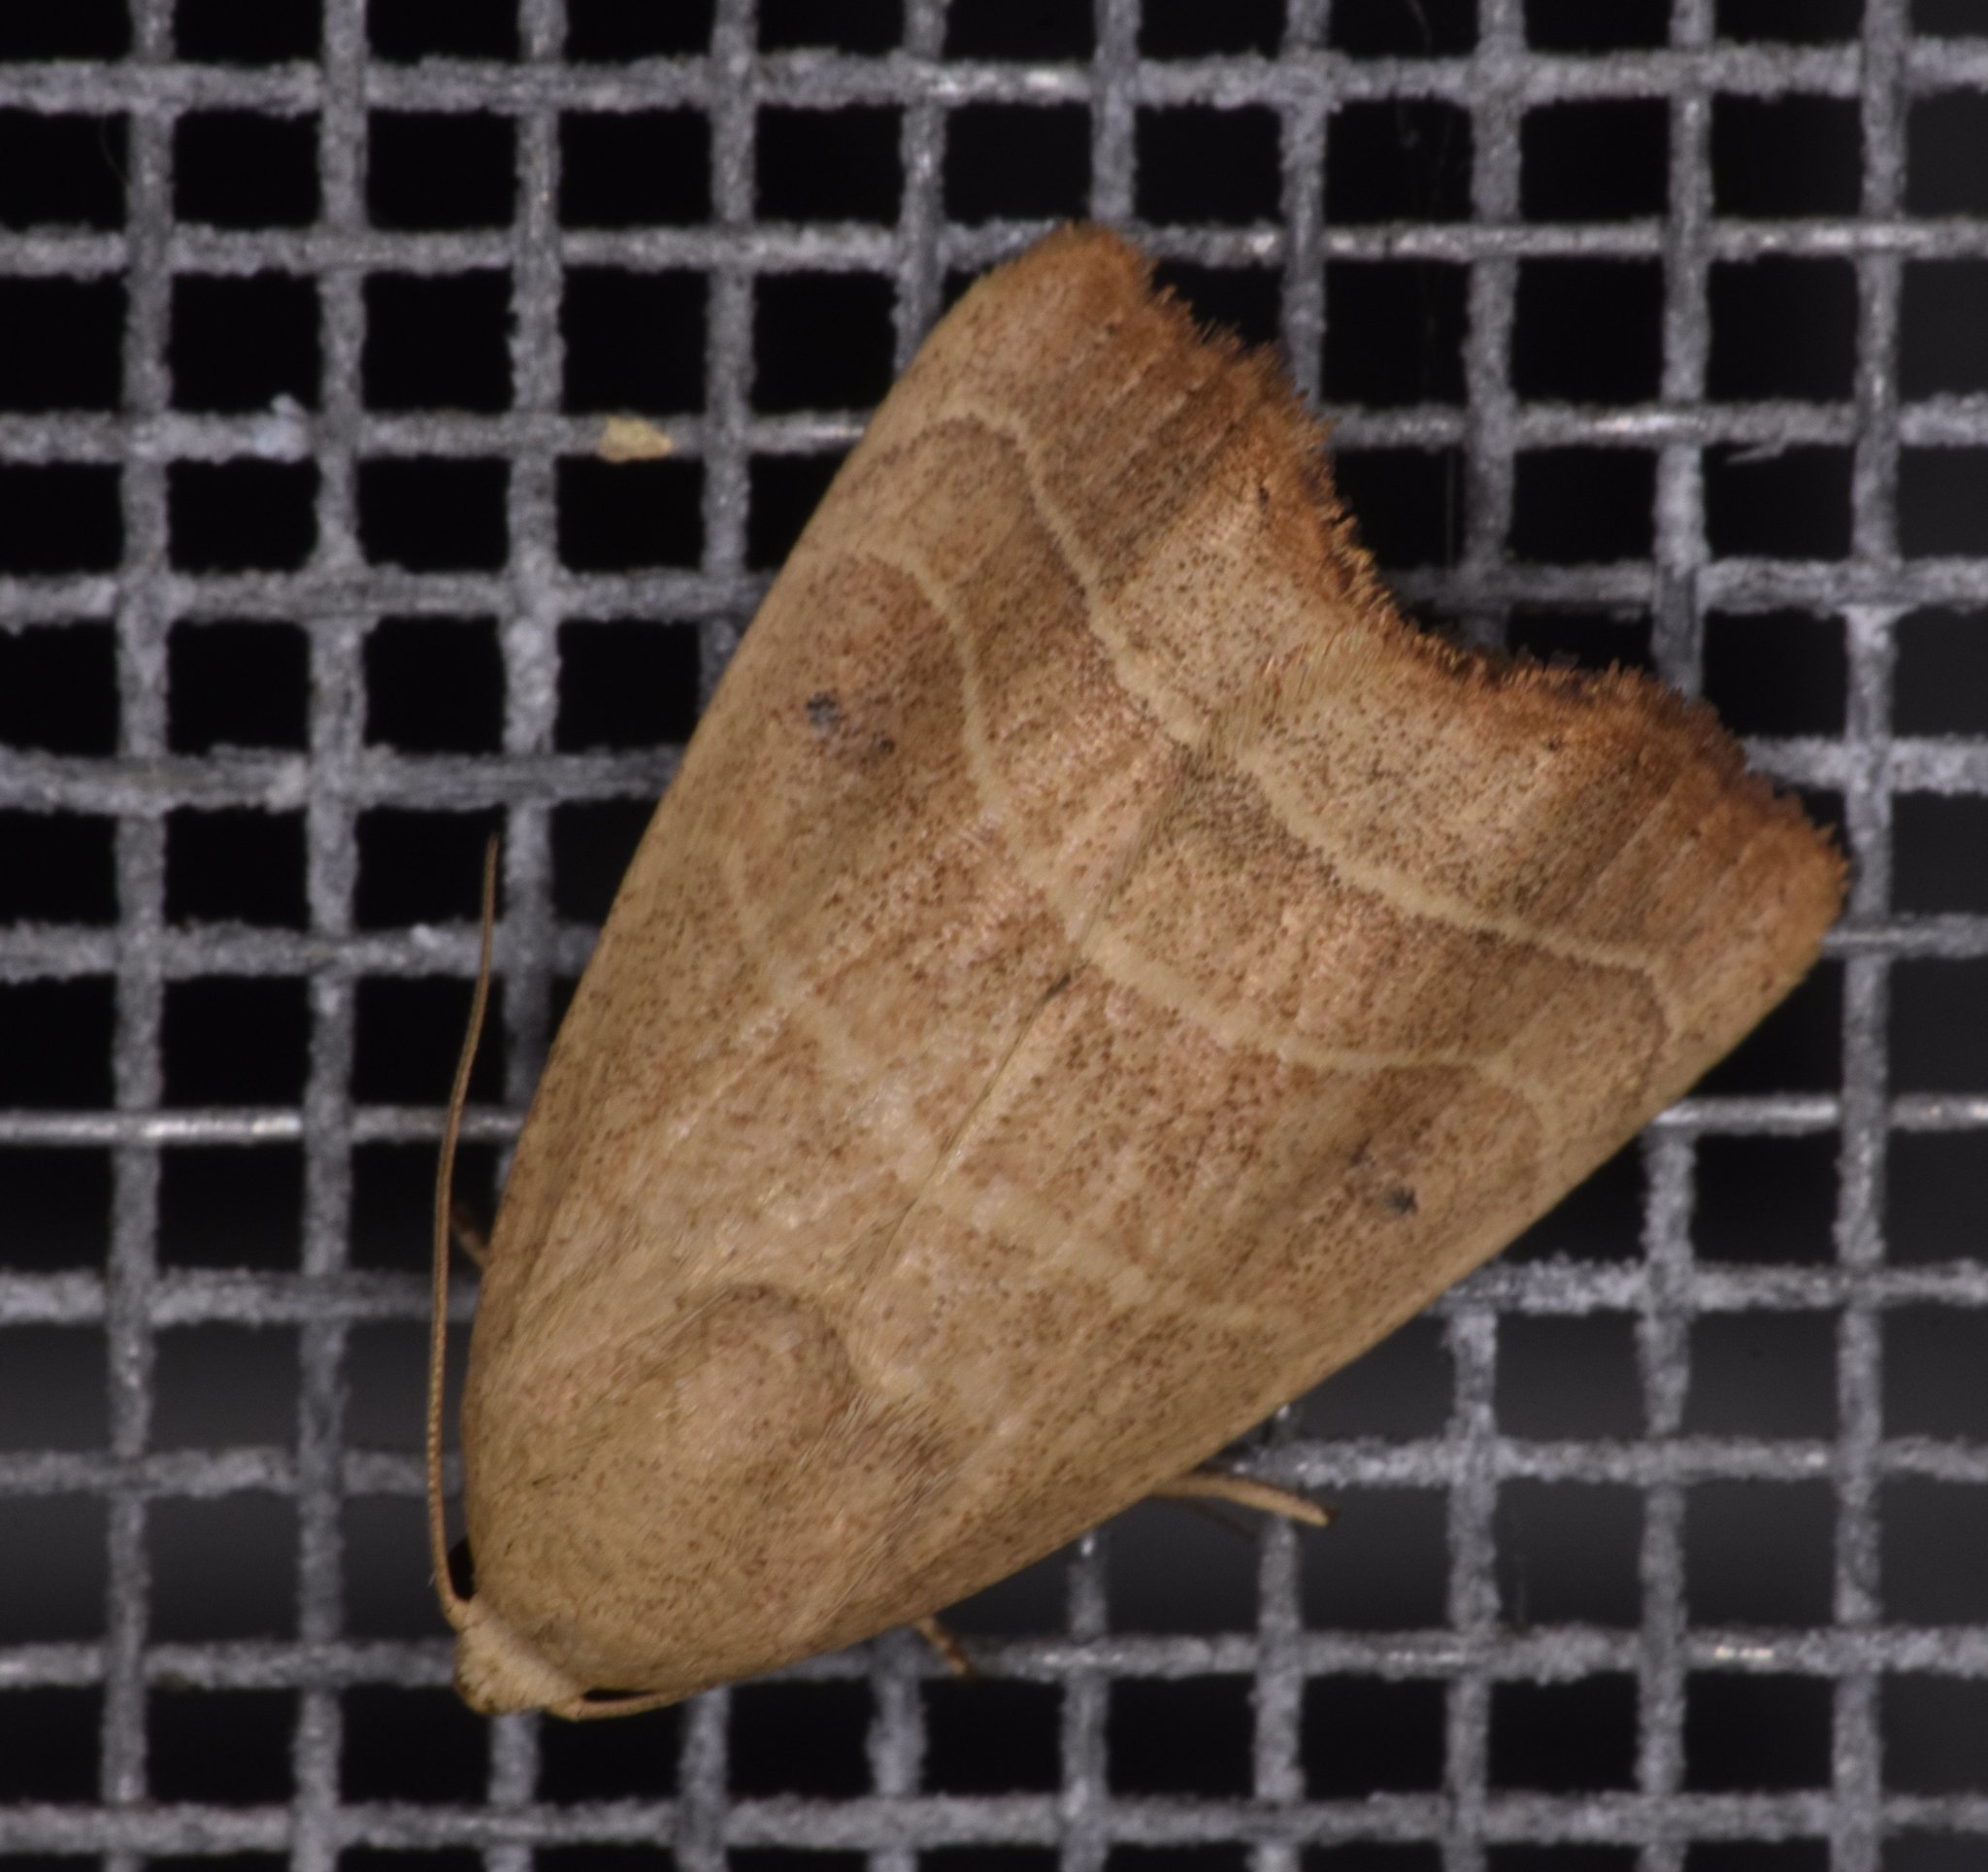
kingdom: Animalia
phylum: Arthropoda
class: Insecta
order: Lepidoptera
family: Noctuidae
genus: Bagisara
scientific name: Bagisara repanda
